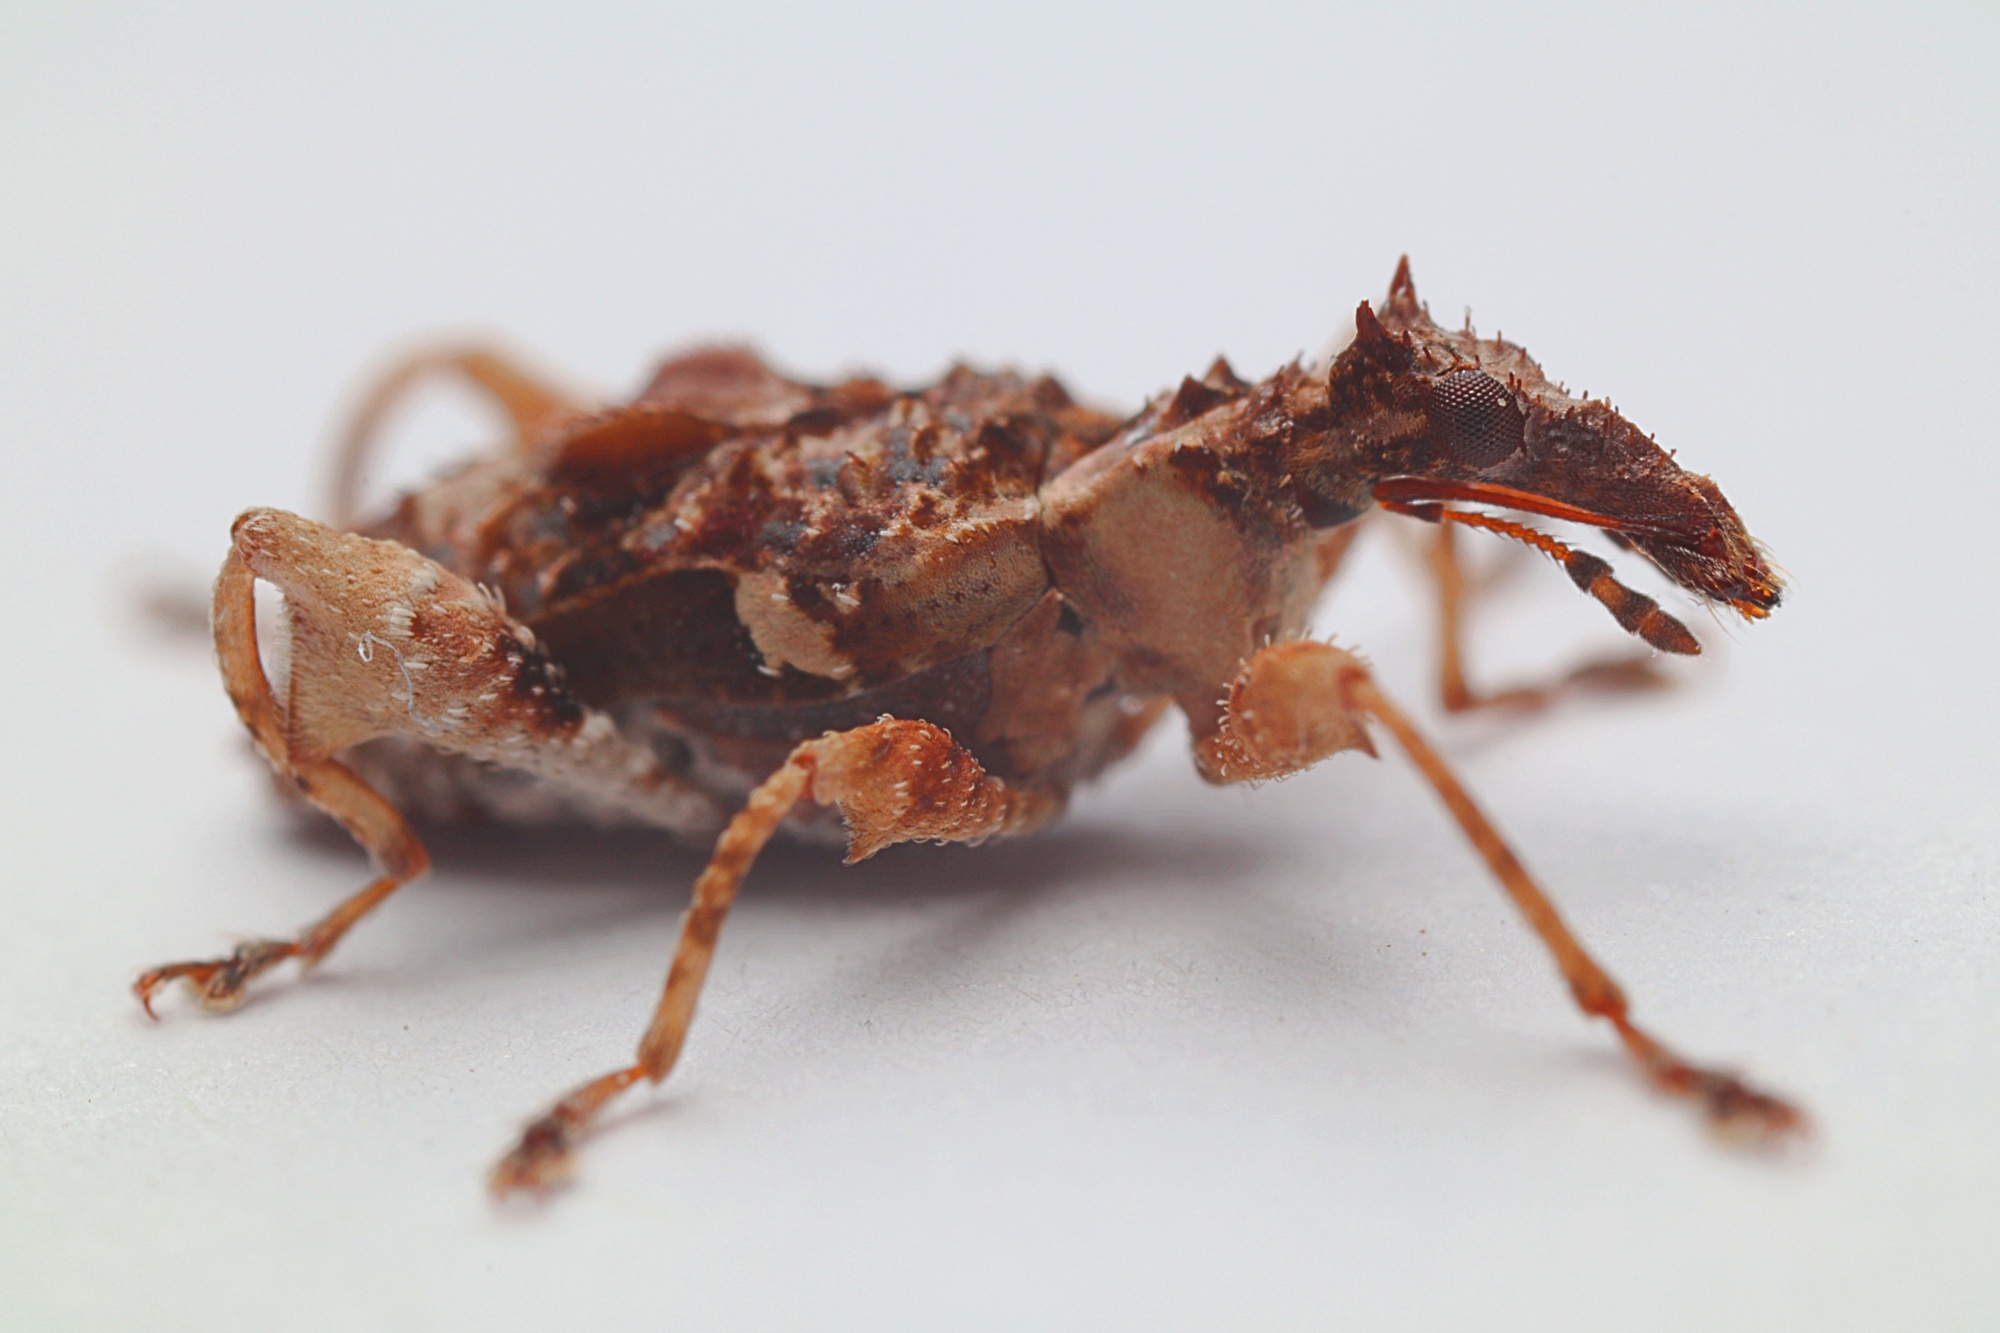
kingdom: Animalia
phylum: Arthropoda
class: Insecta
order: Coleoptera
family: Curculionidae
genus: Stephanorhynchus
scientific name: Stephanorhynchus curvipes
